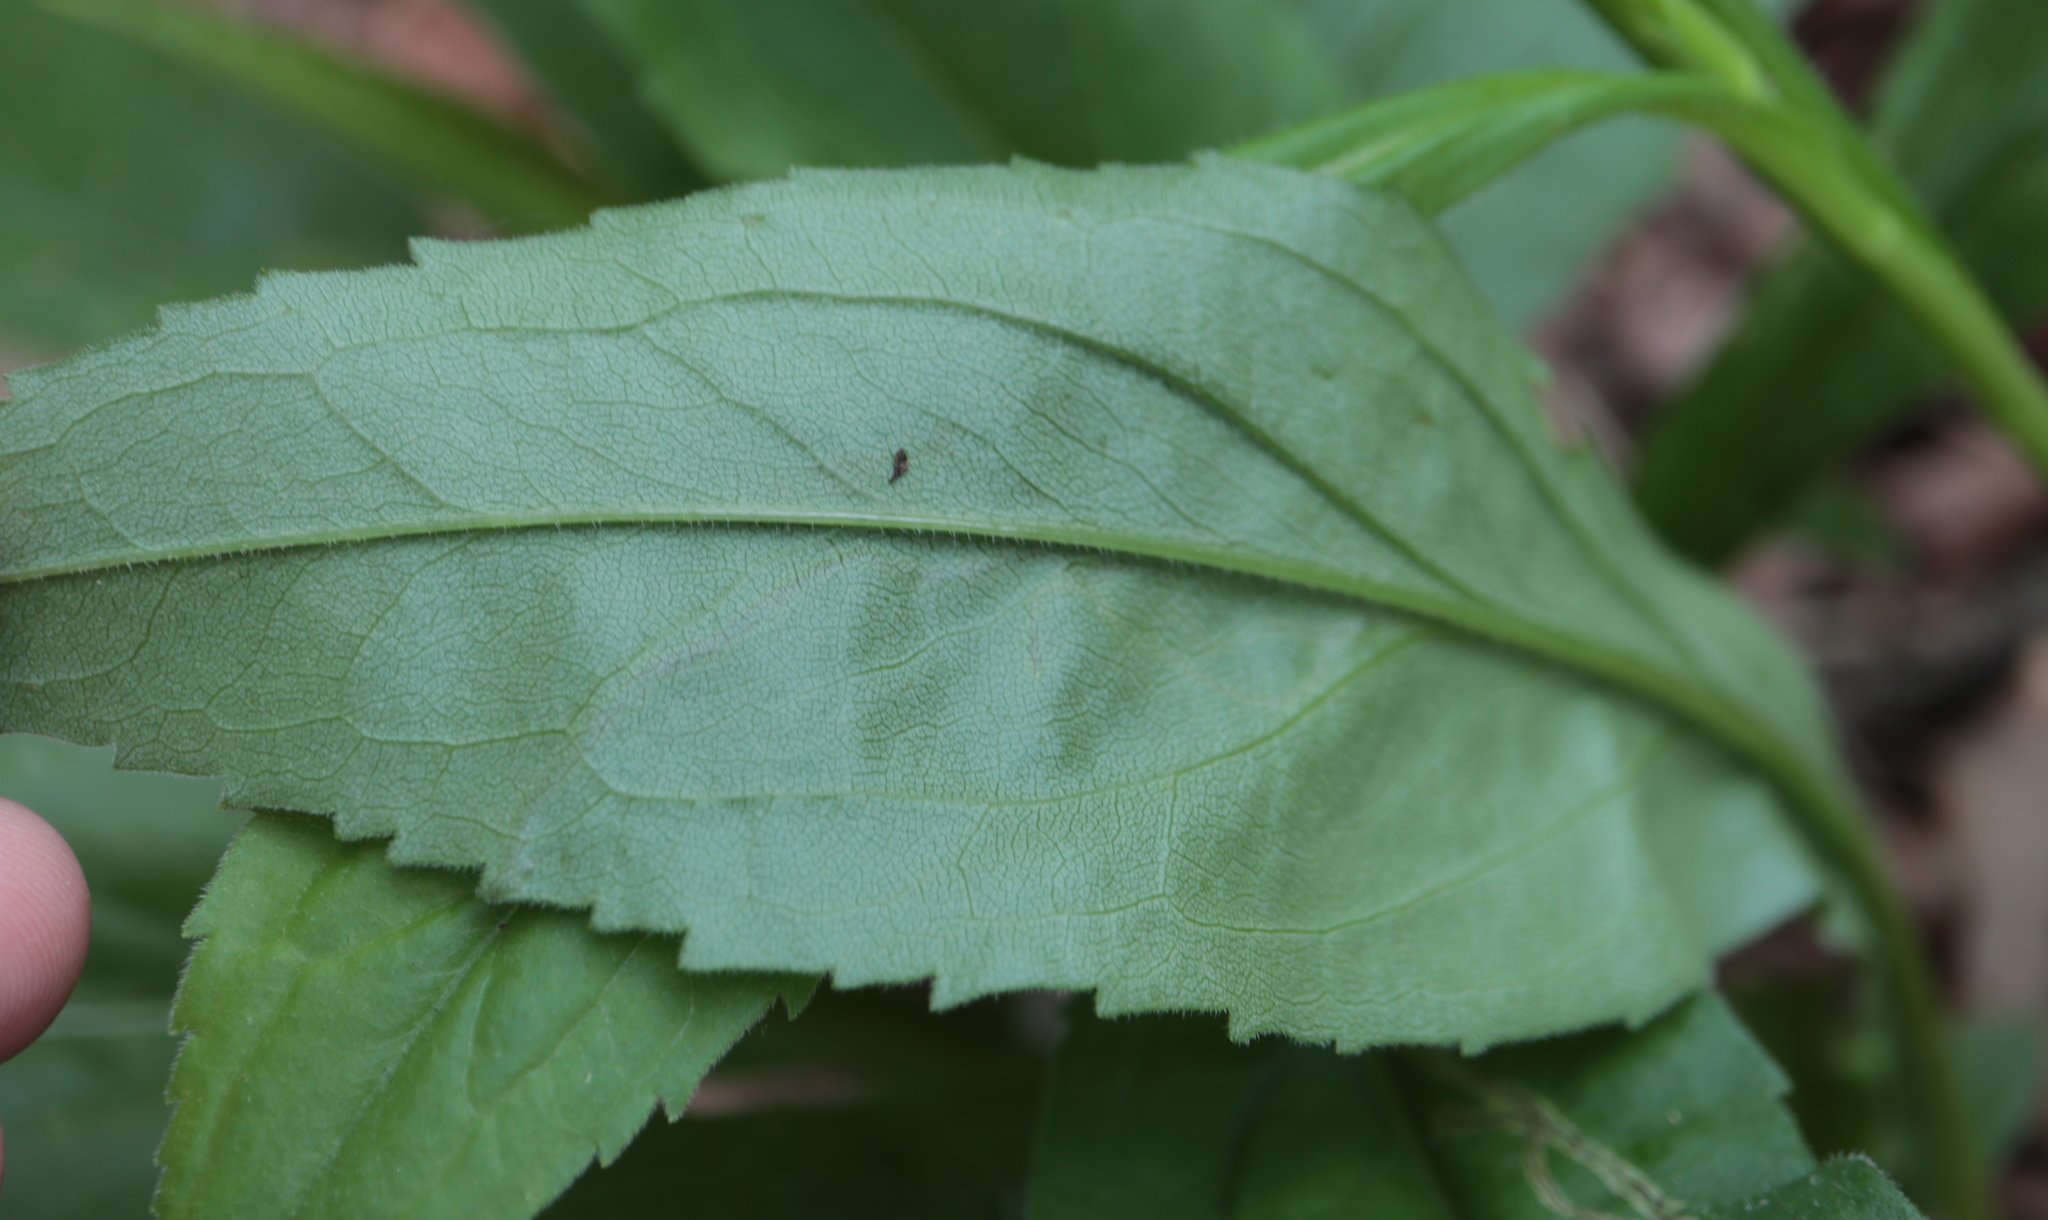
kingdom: Animalia
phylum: Arthropoda
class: Insecta
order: Diptera
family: Agromyzidae
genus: Liriomyza
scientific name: Liriomyza eupatorii
